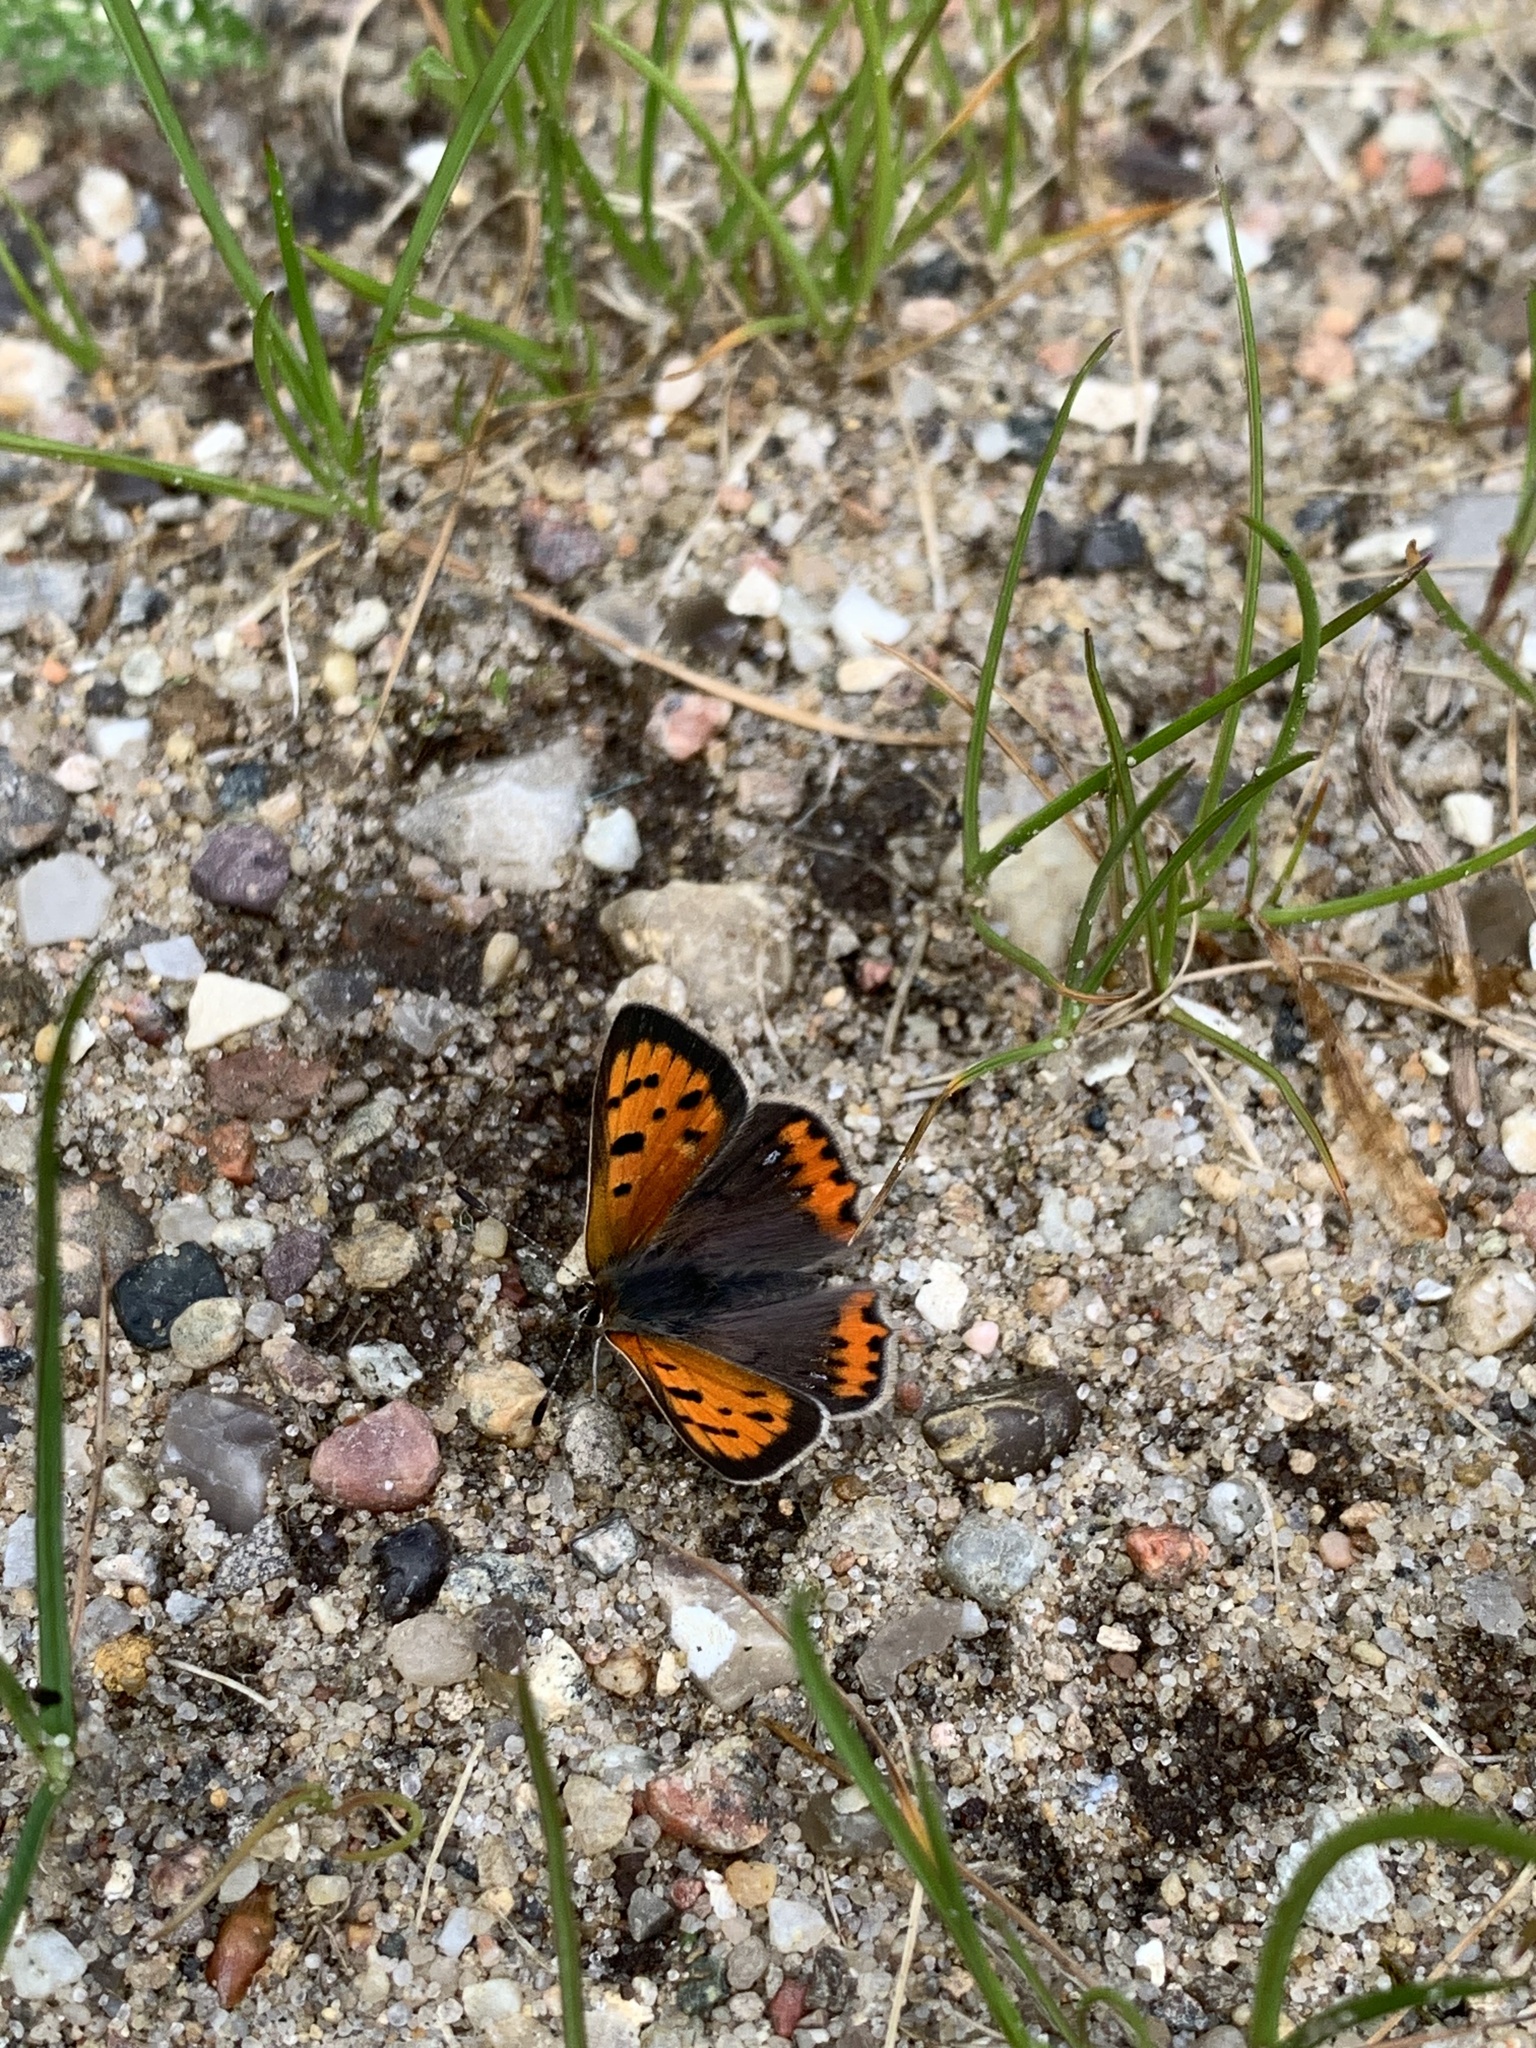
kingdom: Animalia
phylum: Arthropoda
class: Insecta
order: Lepidoptera
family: Lycaenidae
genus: Lycaena
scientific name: Lycaena phlaeas
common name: Small copper
